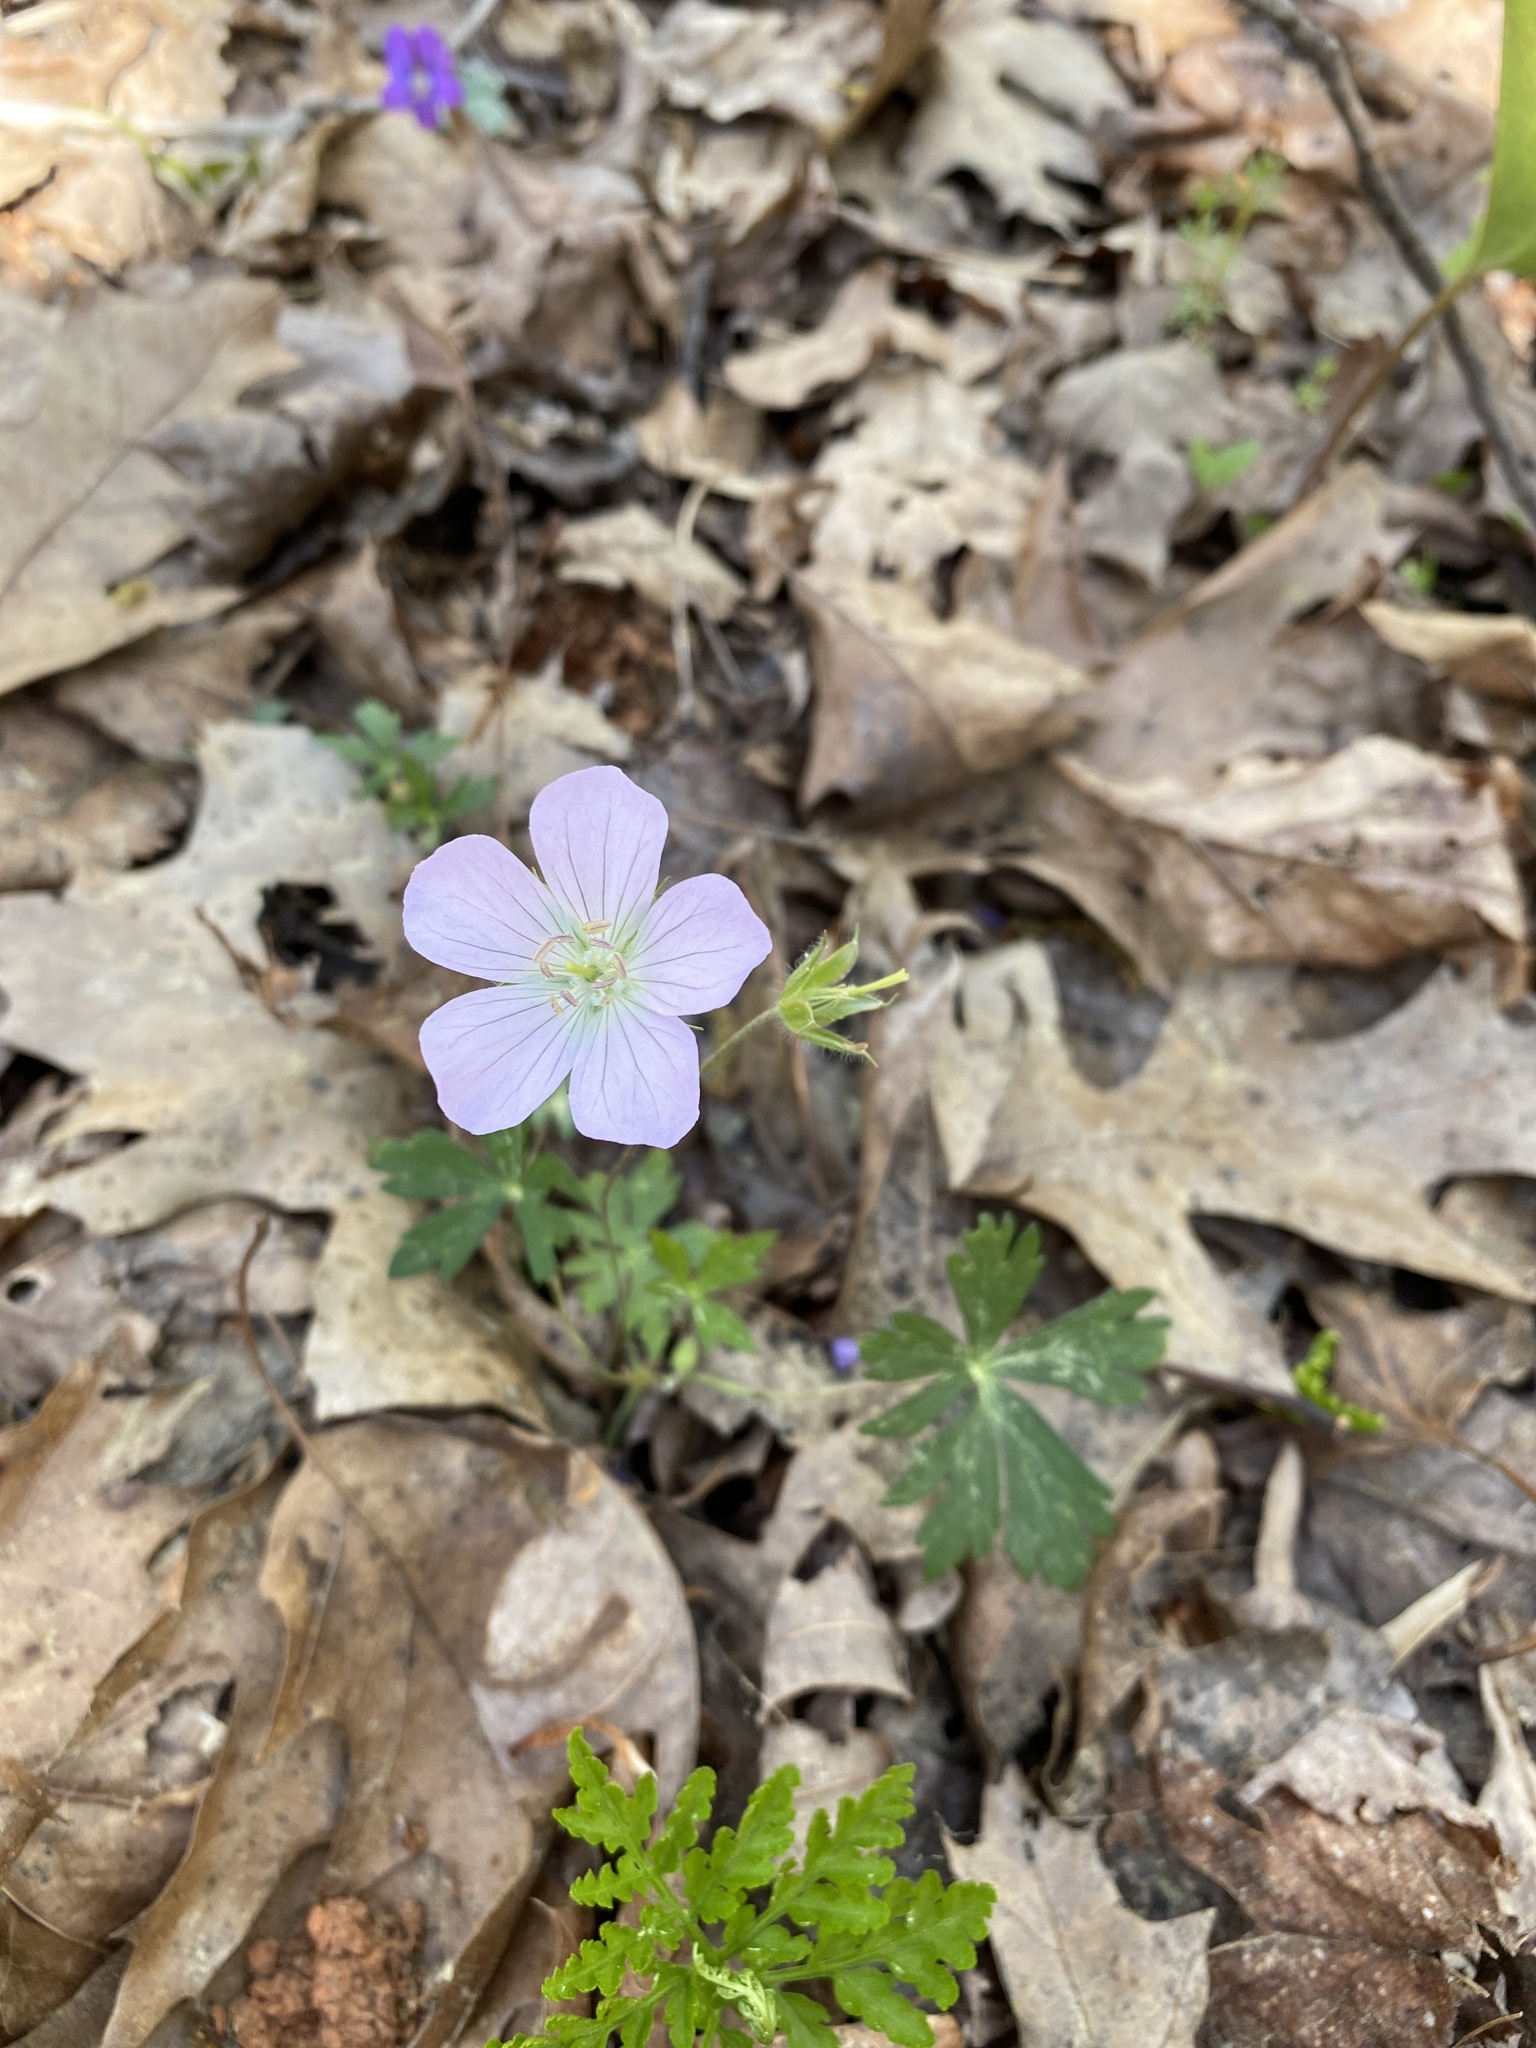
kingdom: Plantae
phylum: Tracheophyta
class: Magnoliopsida
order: Geraniales
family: Geraniaceae
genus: Geranium
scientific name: Geranium maculatum
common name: Spotted geranium
